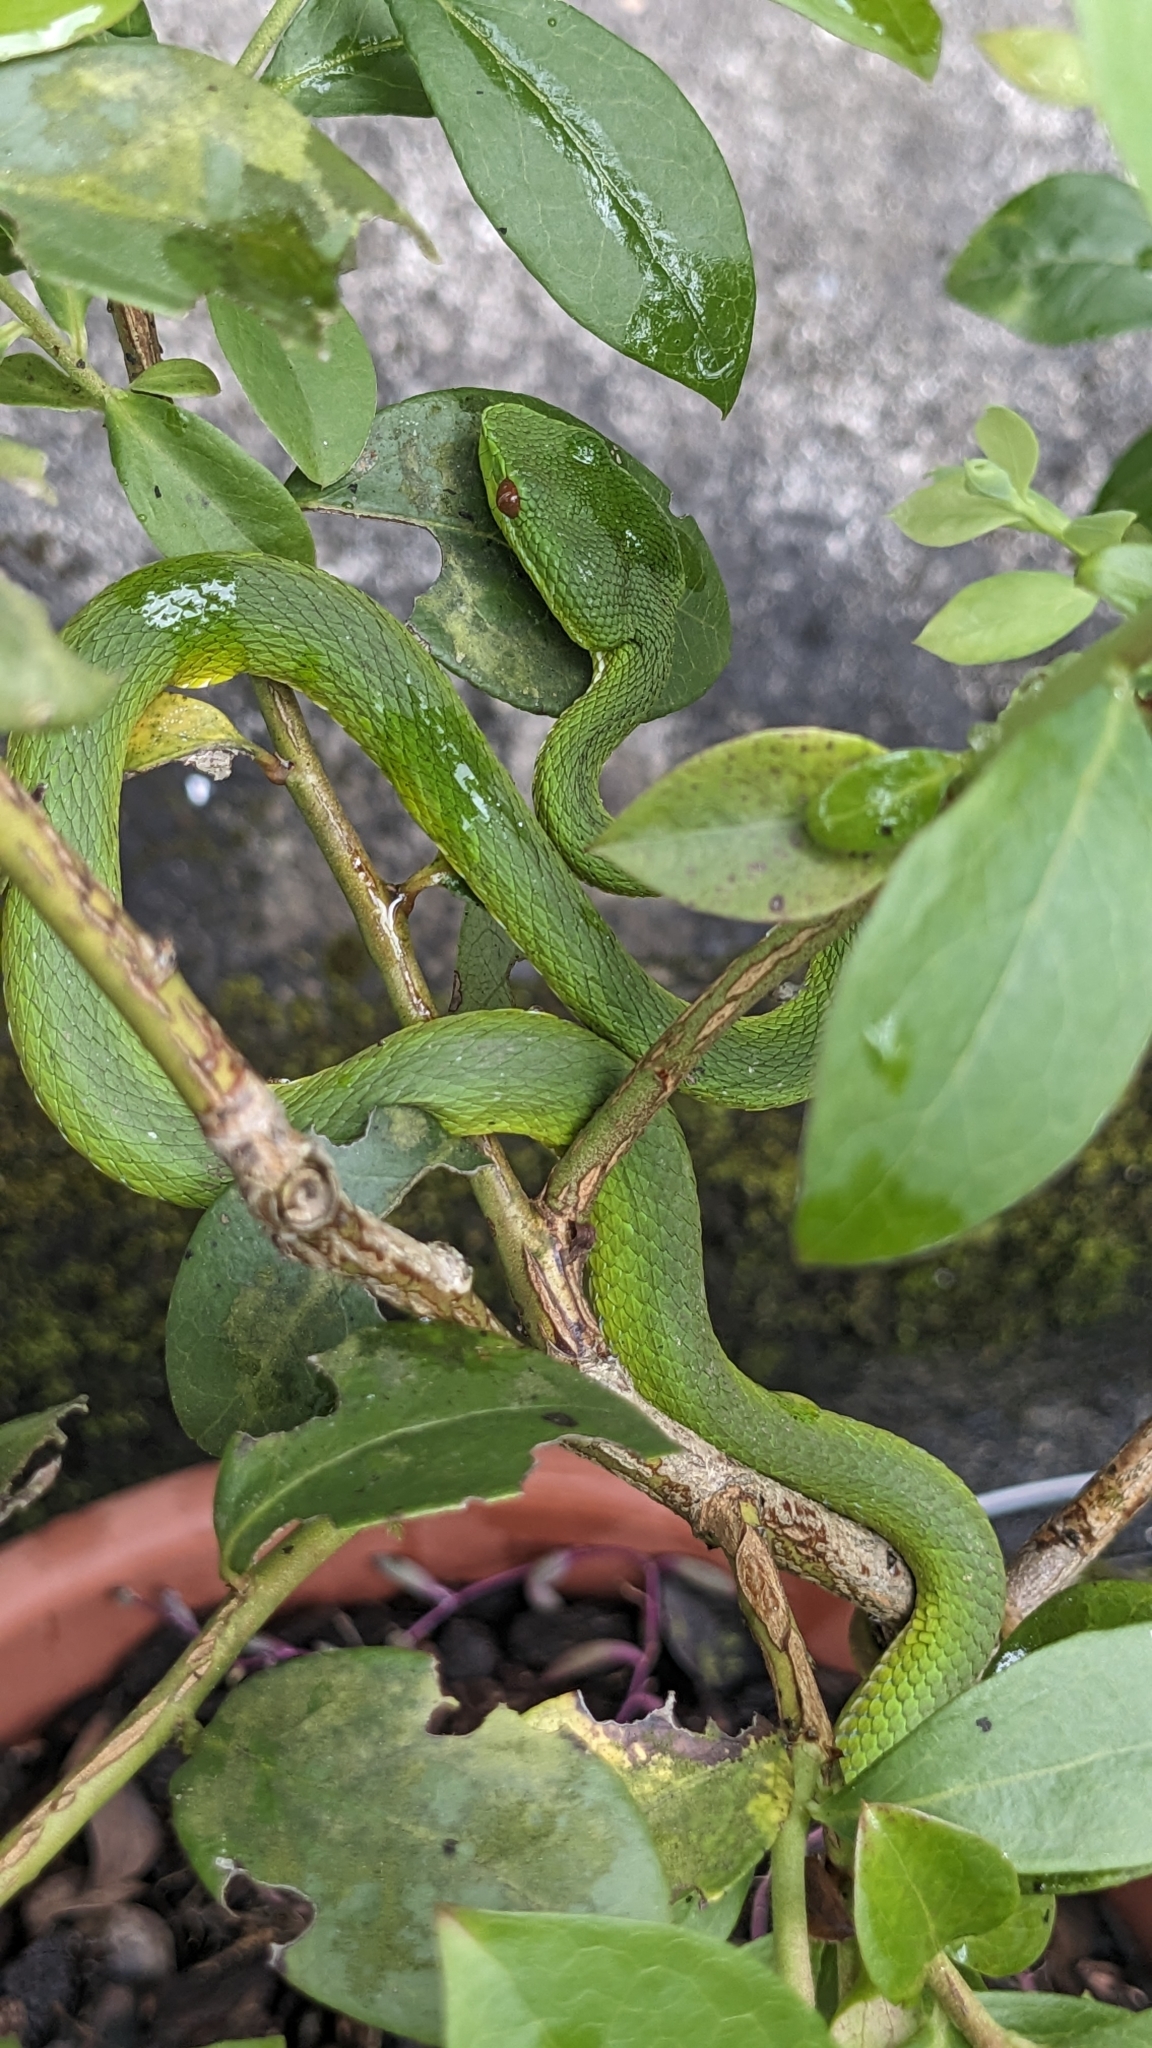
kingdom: Animalia
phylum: Chordata
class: Squamata
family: Viperidae
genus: Trimeresurus
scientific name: Trimeresurus stejnegeri
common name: Chen’s bamboo pit viper
